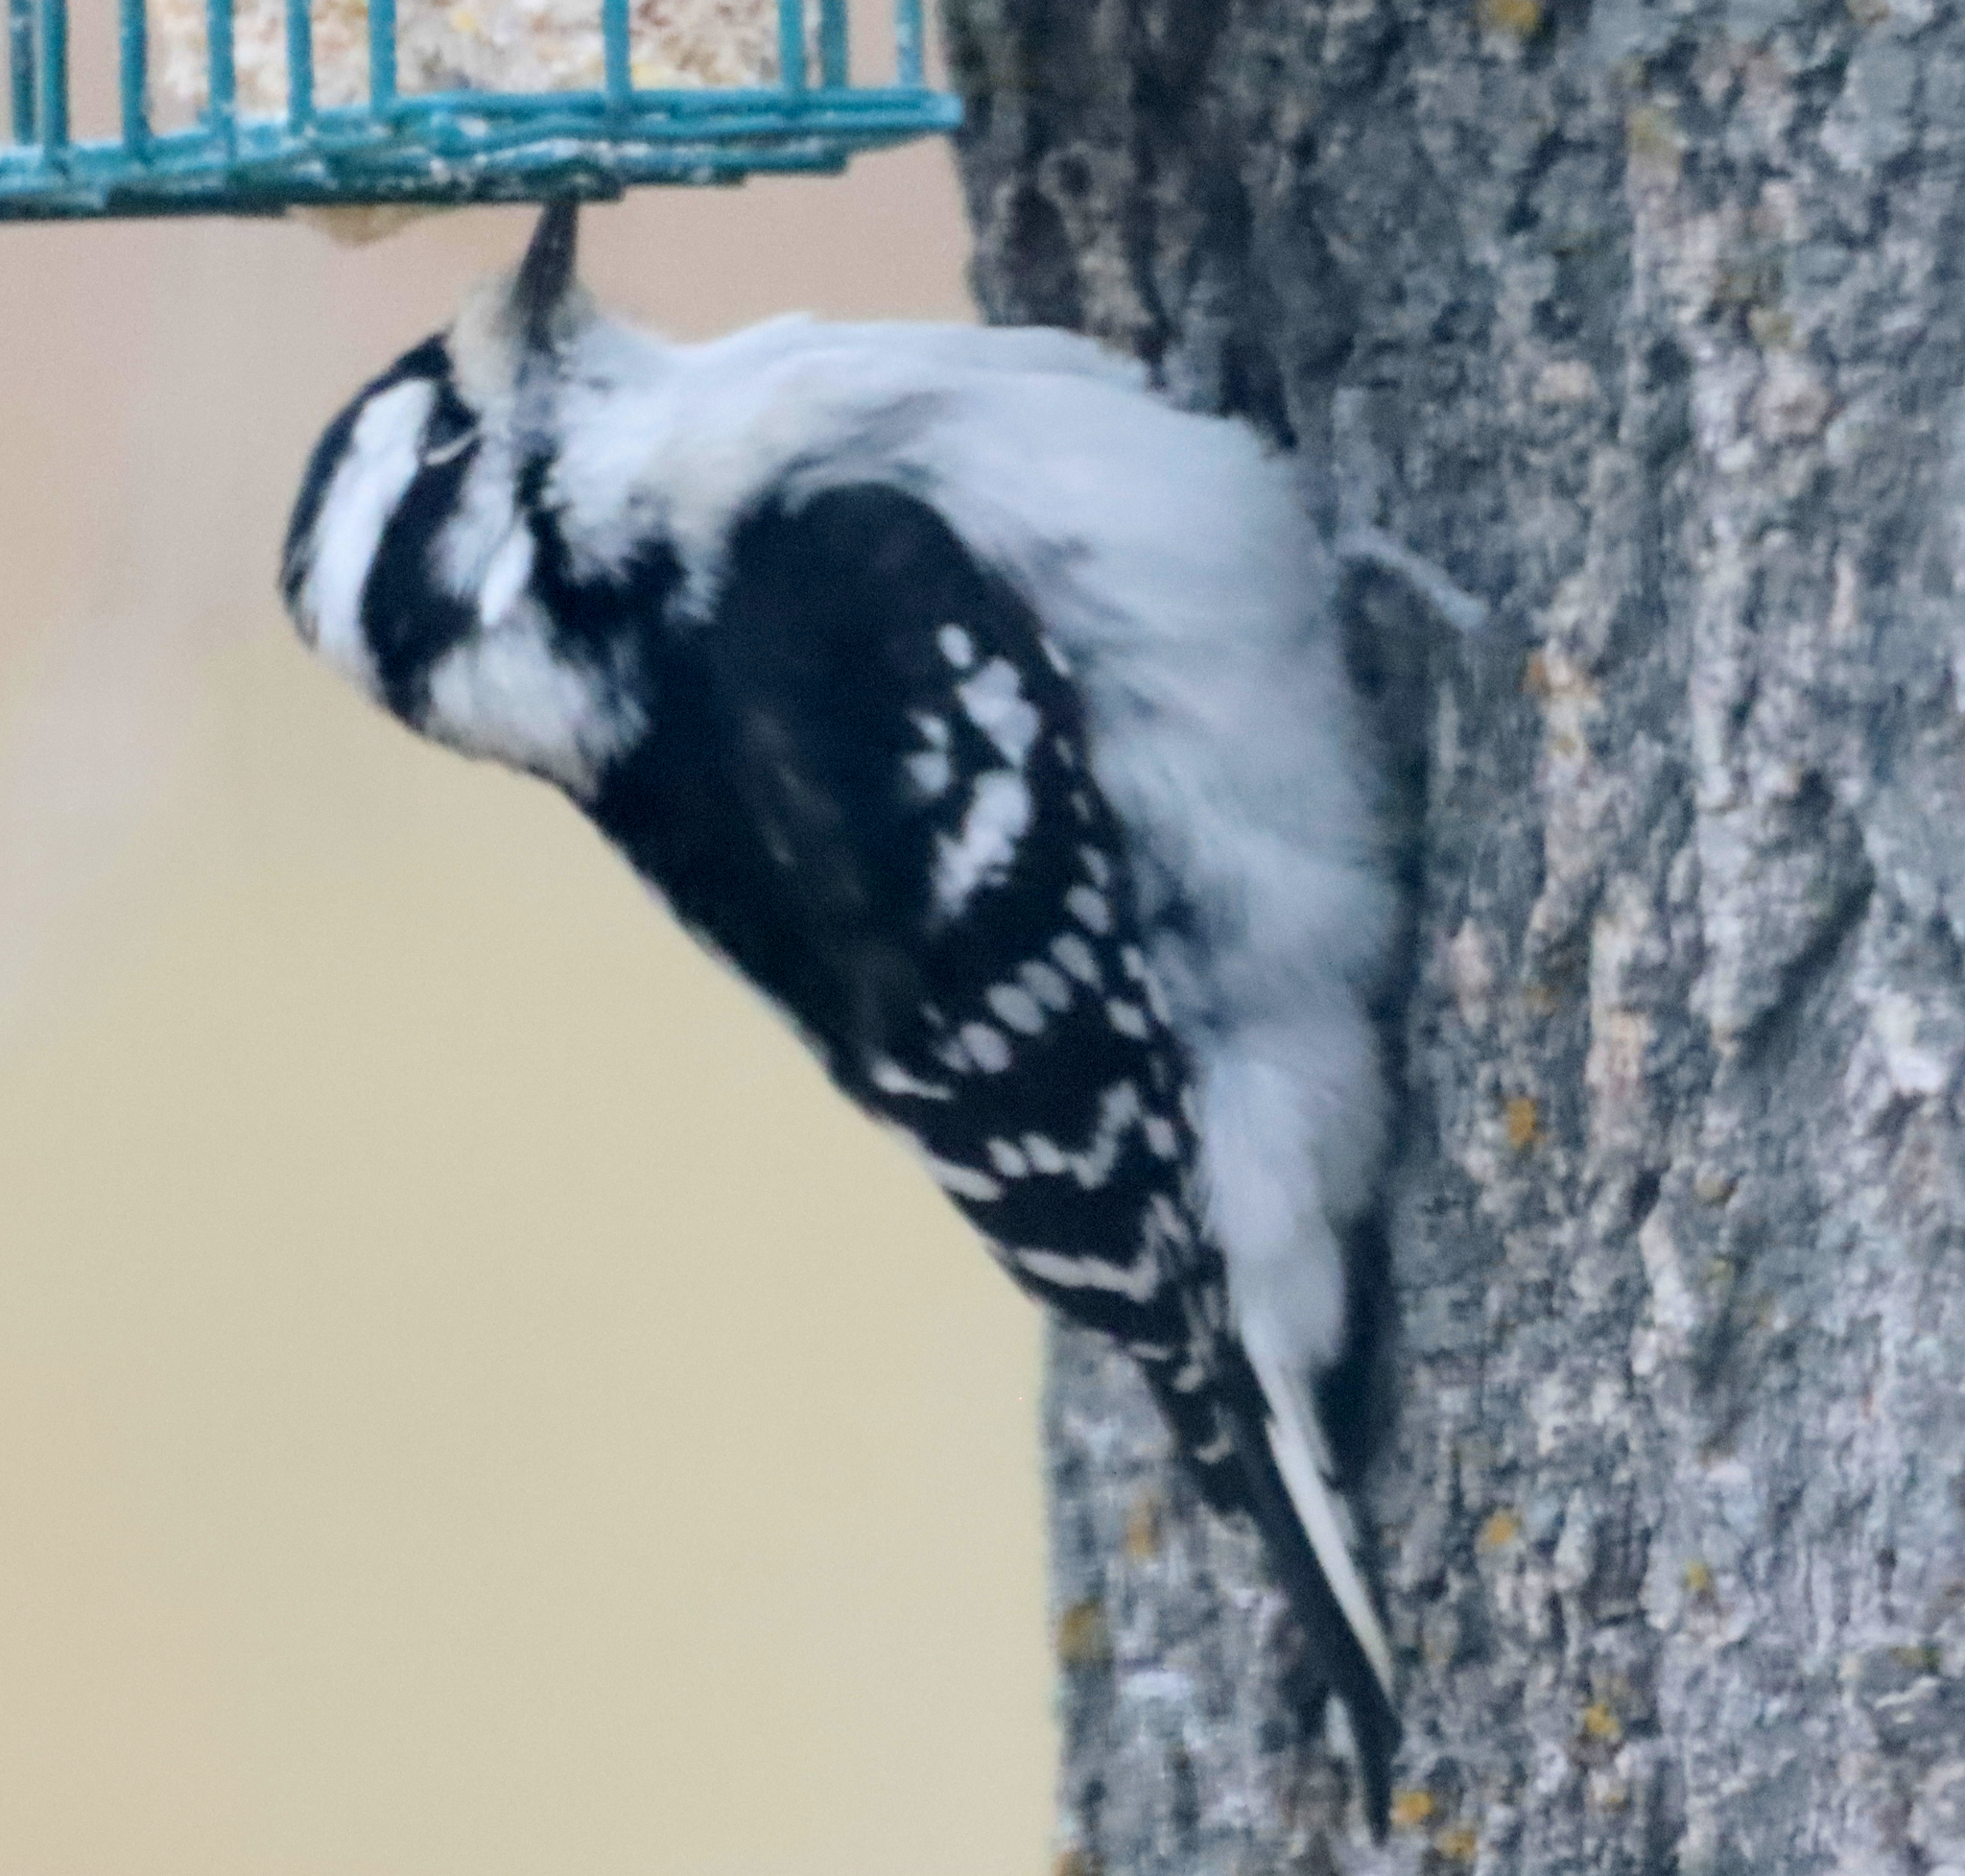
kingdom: Animalia
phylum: Chordata
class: Aves
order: Piciformes
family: Picidae
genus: Dryobates
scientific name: Dryobates pubescens
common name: Downy woodpecker
